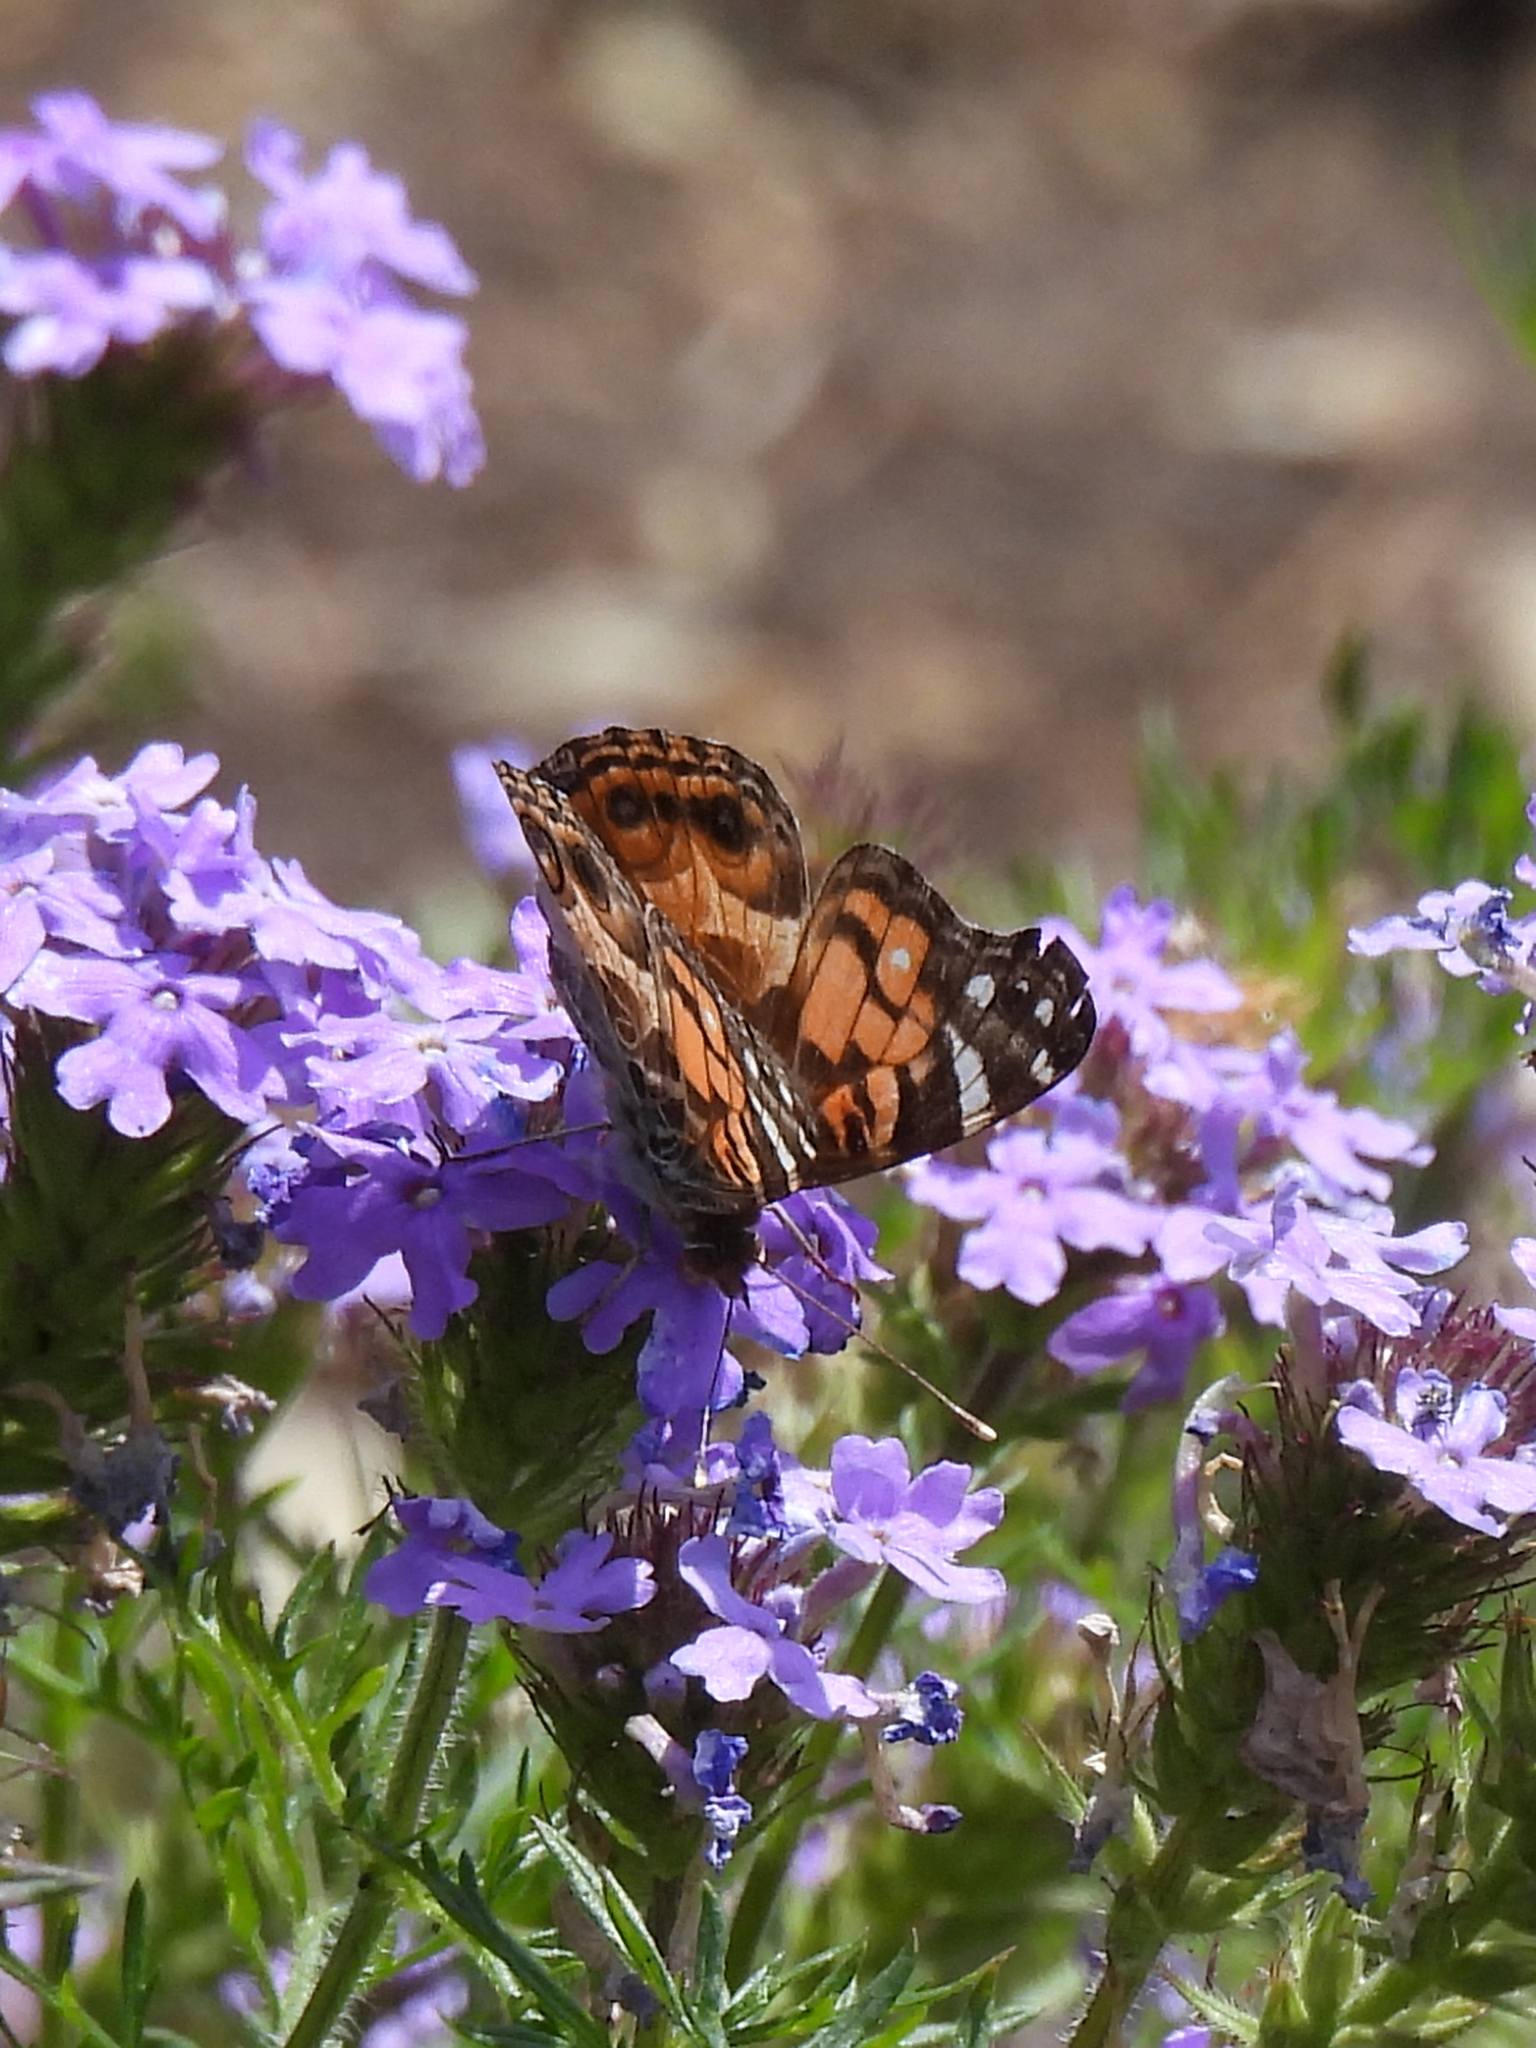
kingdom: Animalia
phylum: Arthropoda
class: Insecta
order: Lepidoptera
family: Nymphalidae
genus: Vanessa
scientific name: Vanessa virginiensis
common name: American lady
